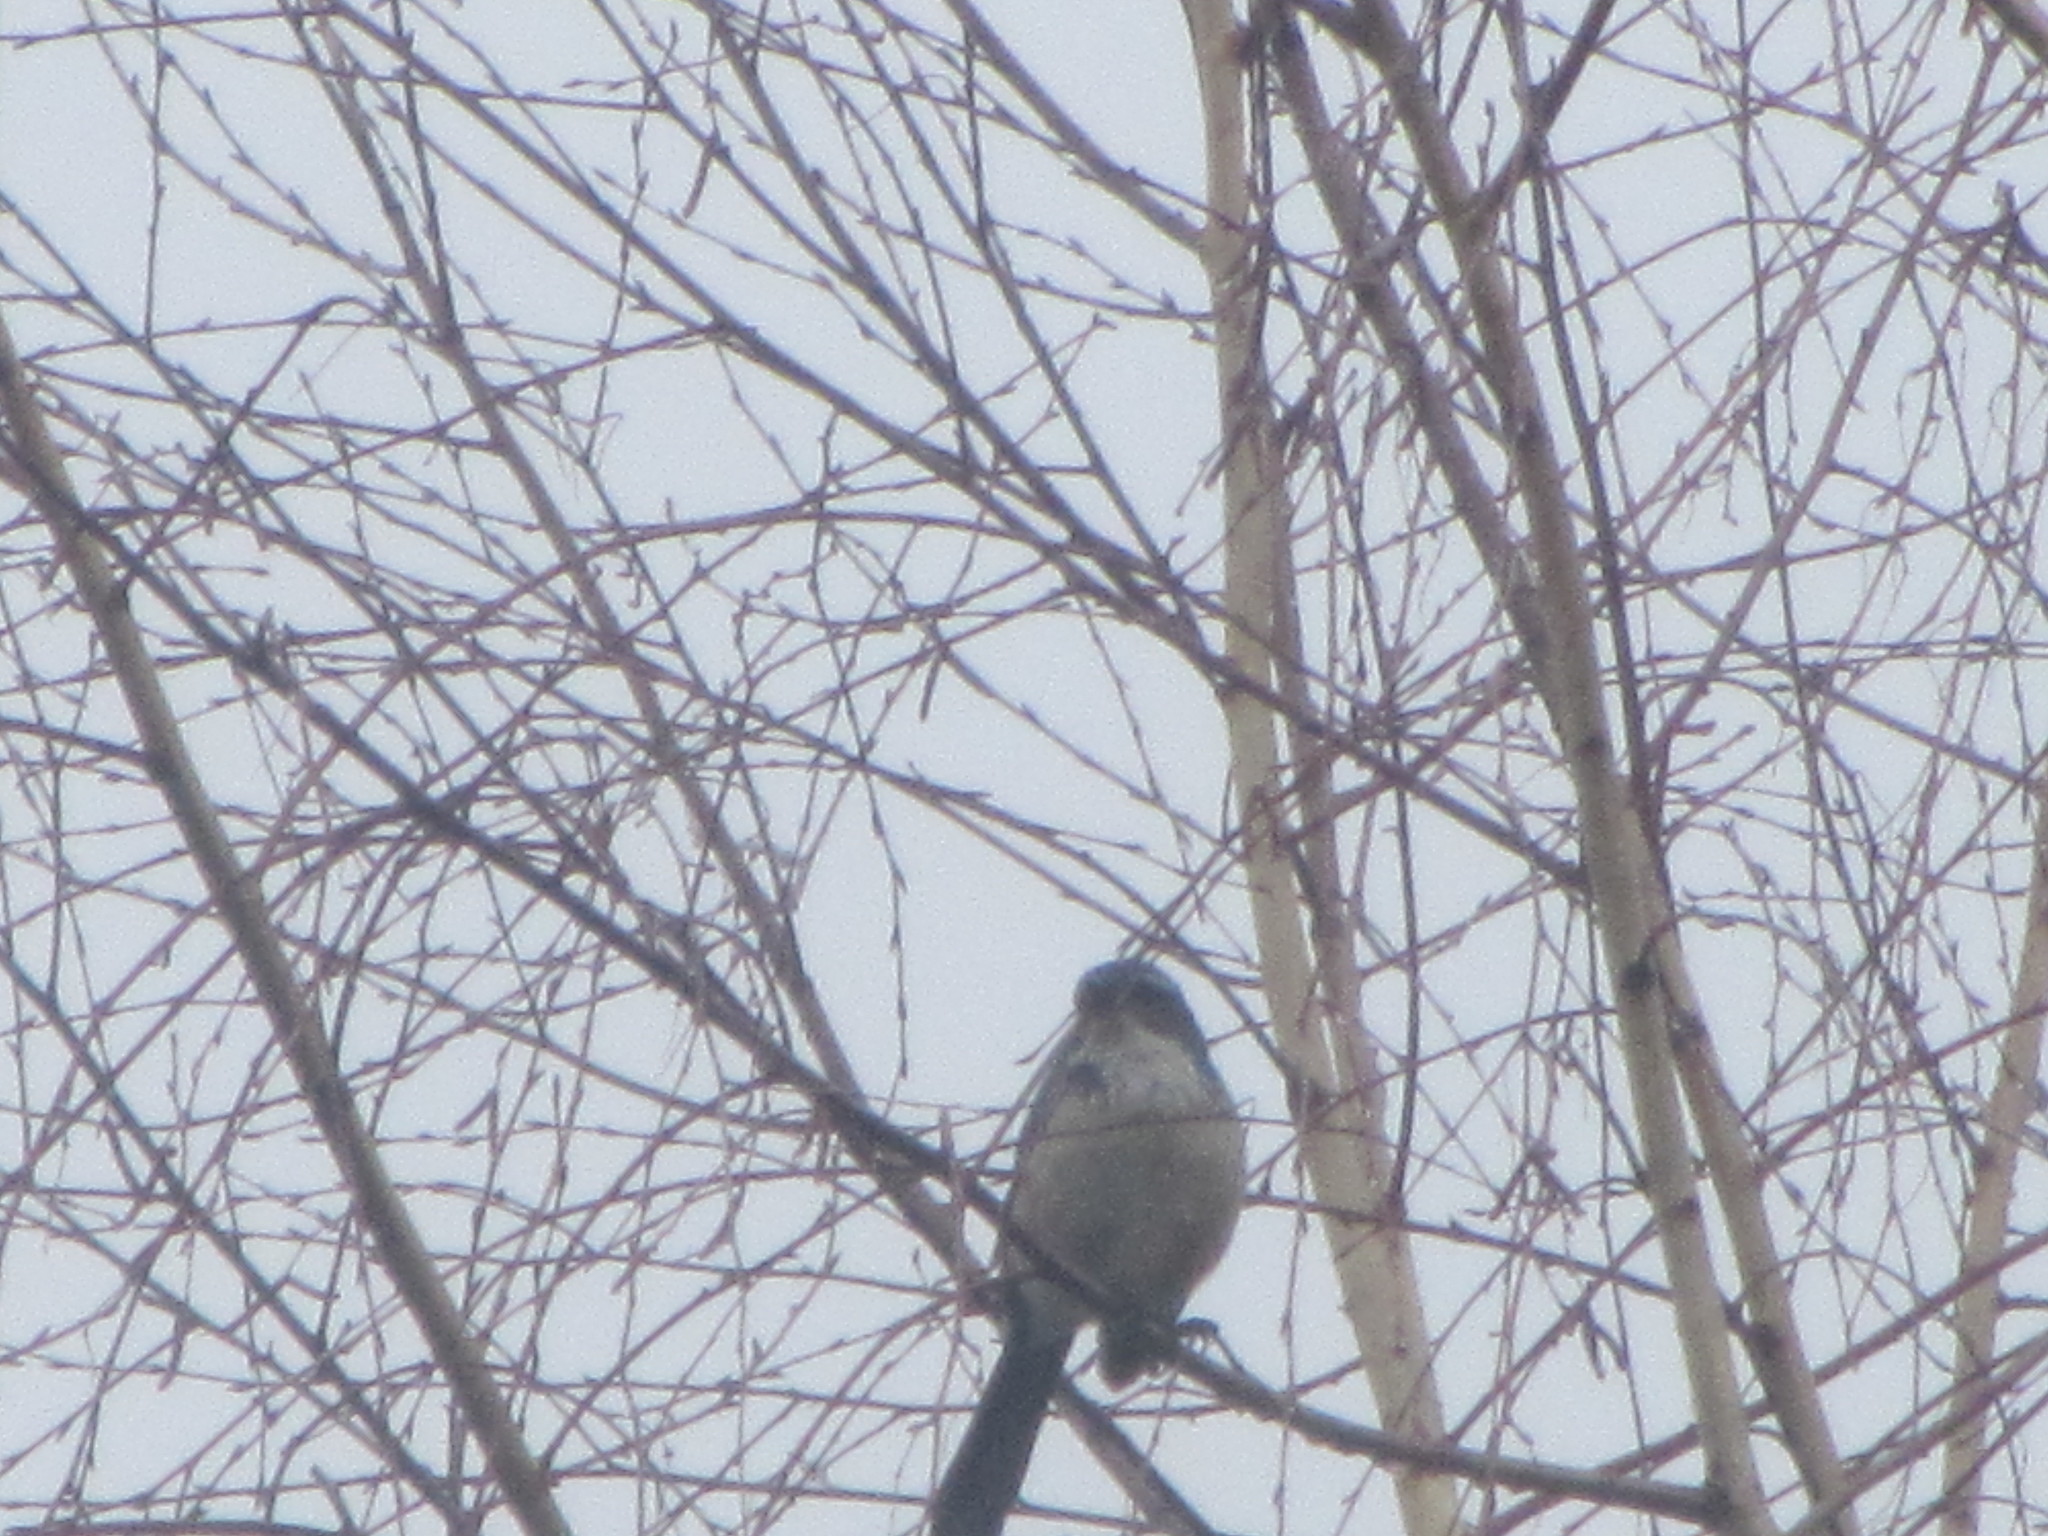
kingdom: Animalia
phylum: Chordata
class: Aves
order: Passeriformes
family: Corvidae
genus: Aphelocoma
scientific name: Aphelocoma californica
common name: California scrub-jay
